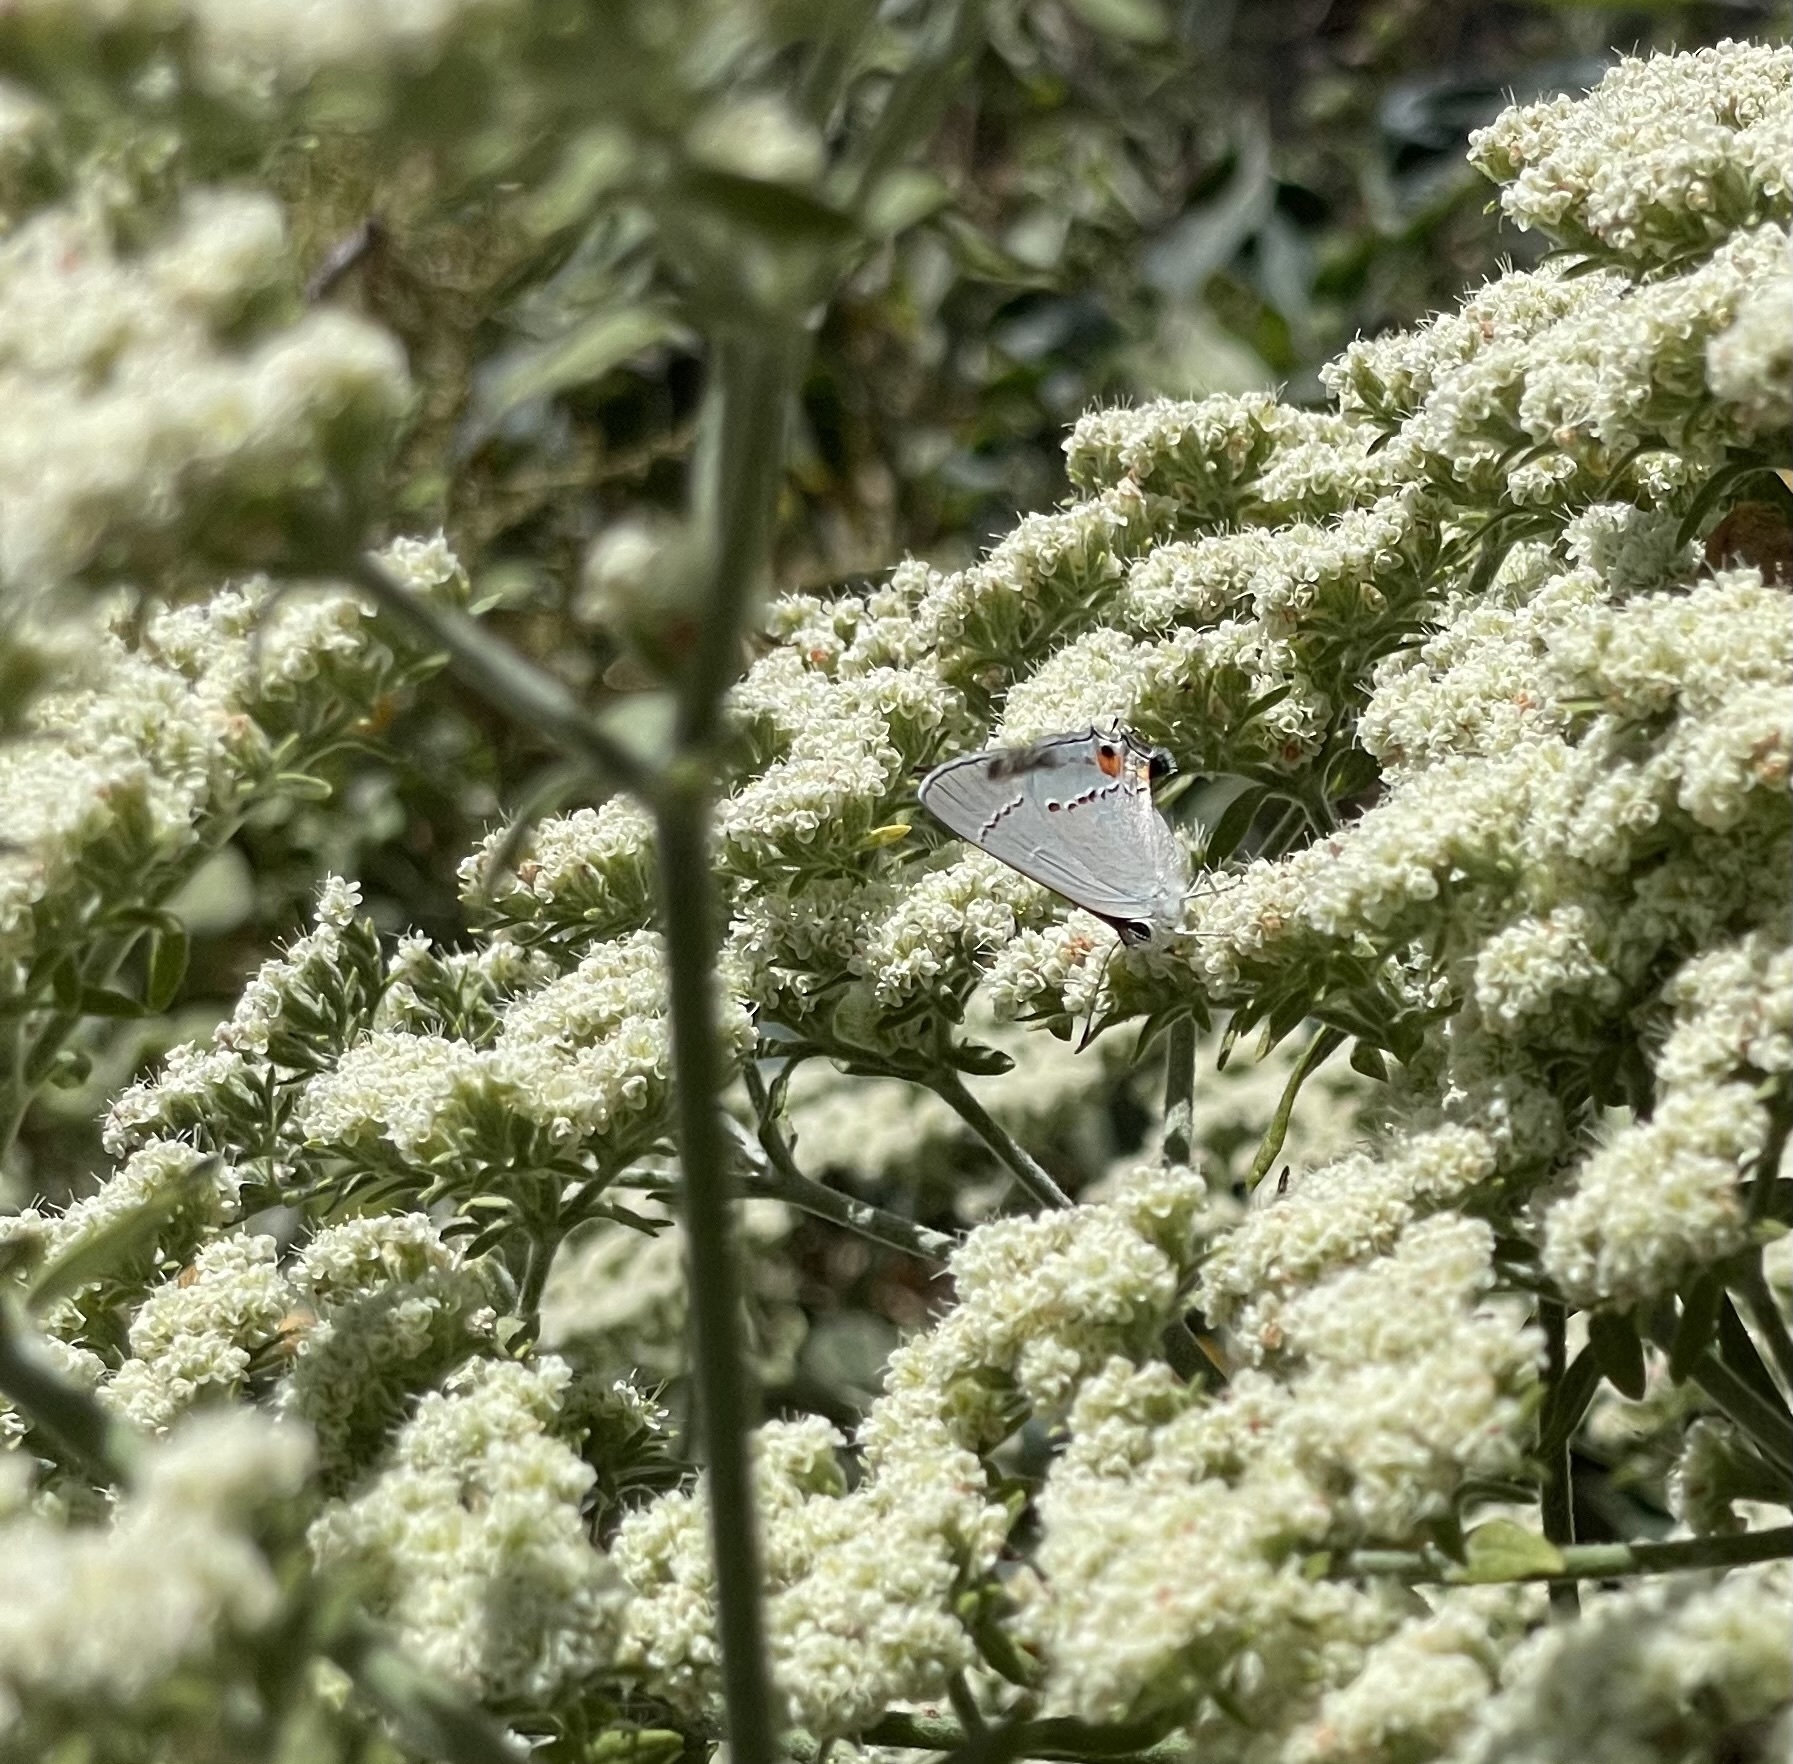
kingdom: Animalia
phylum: Arthropoda
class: Insecta
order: Lepidoptera
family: Lycaenidae
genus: Strymon
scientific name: Strymon melinus
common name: Gray hairstreak
